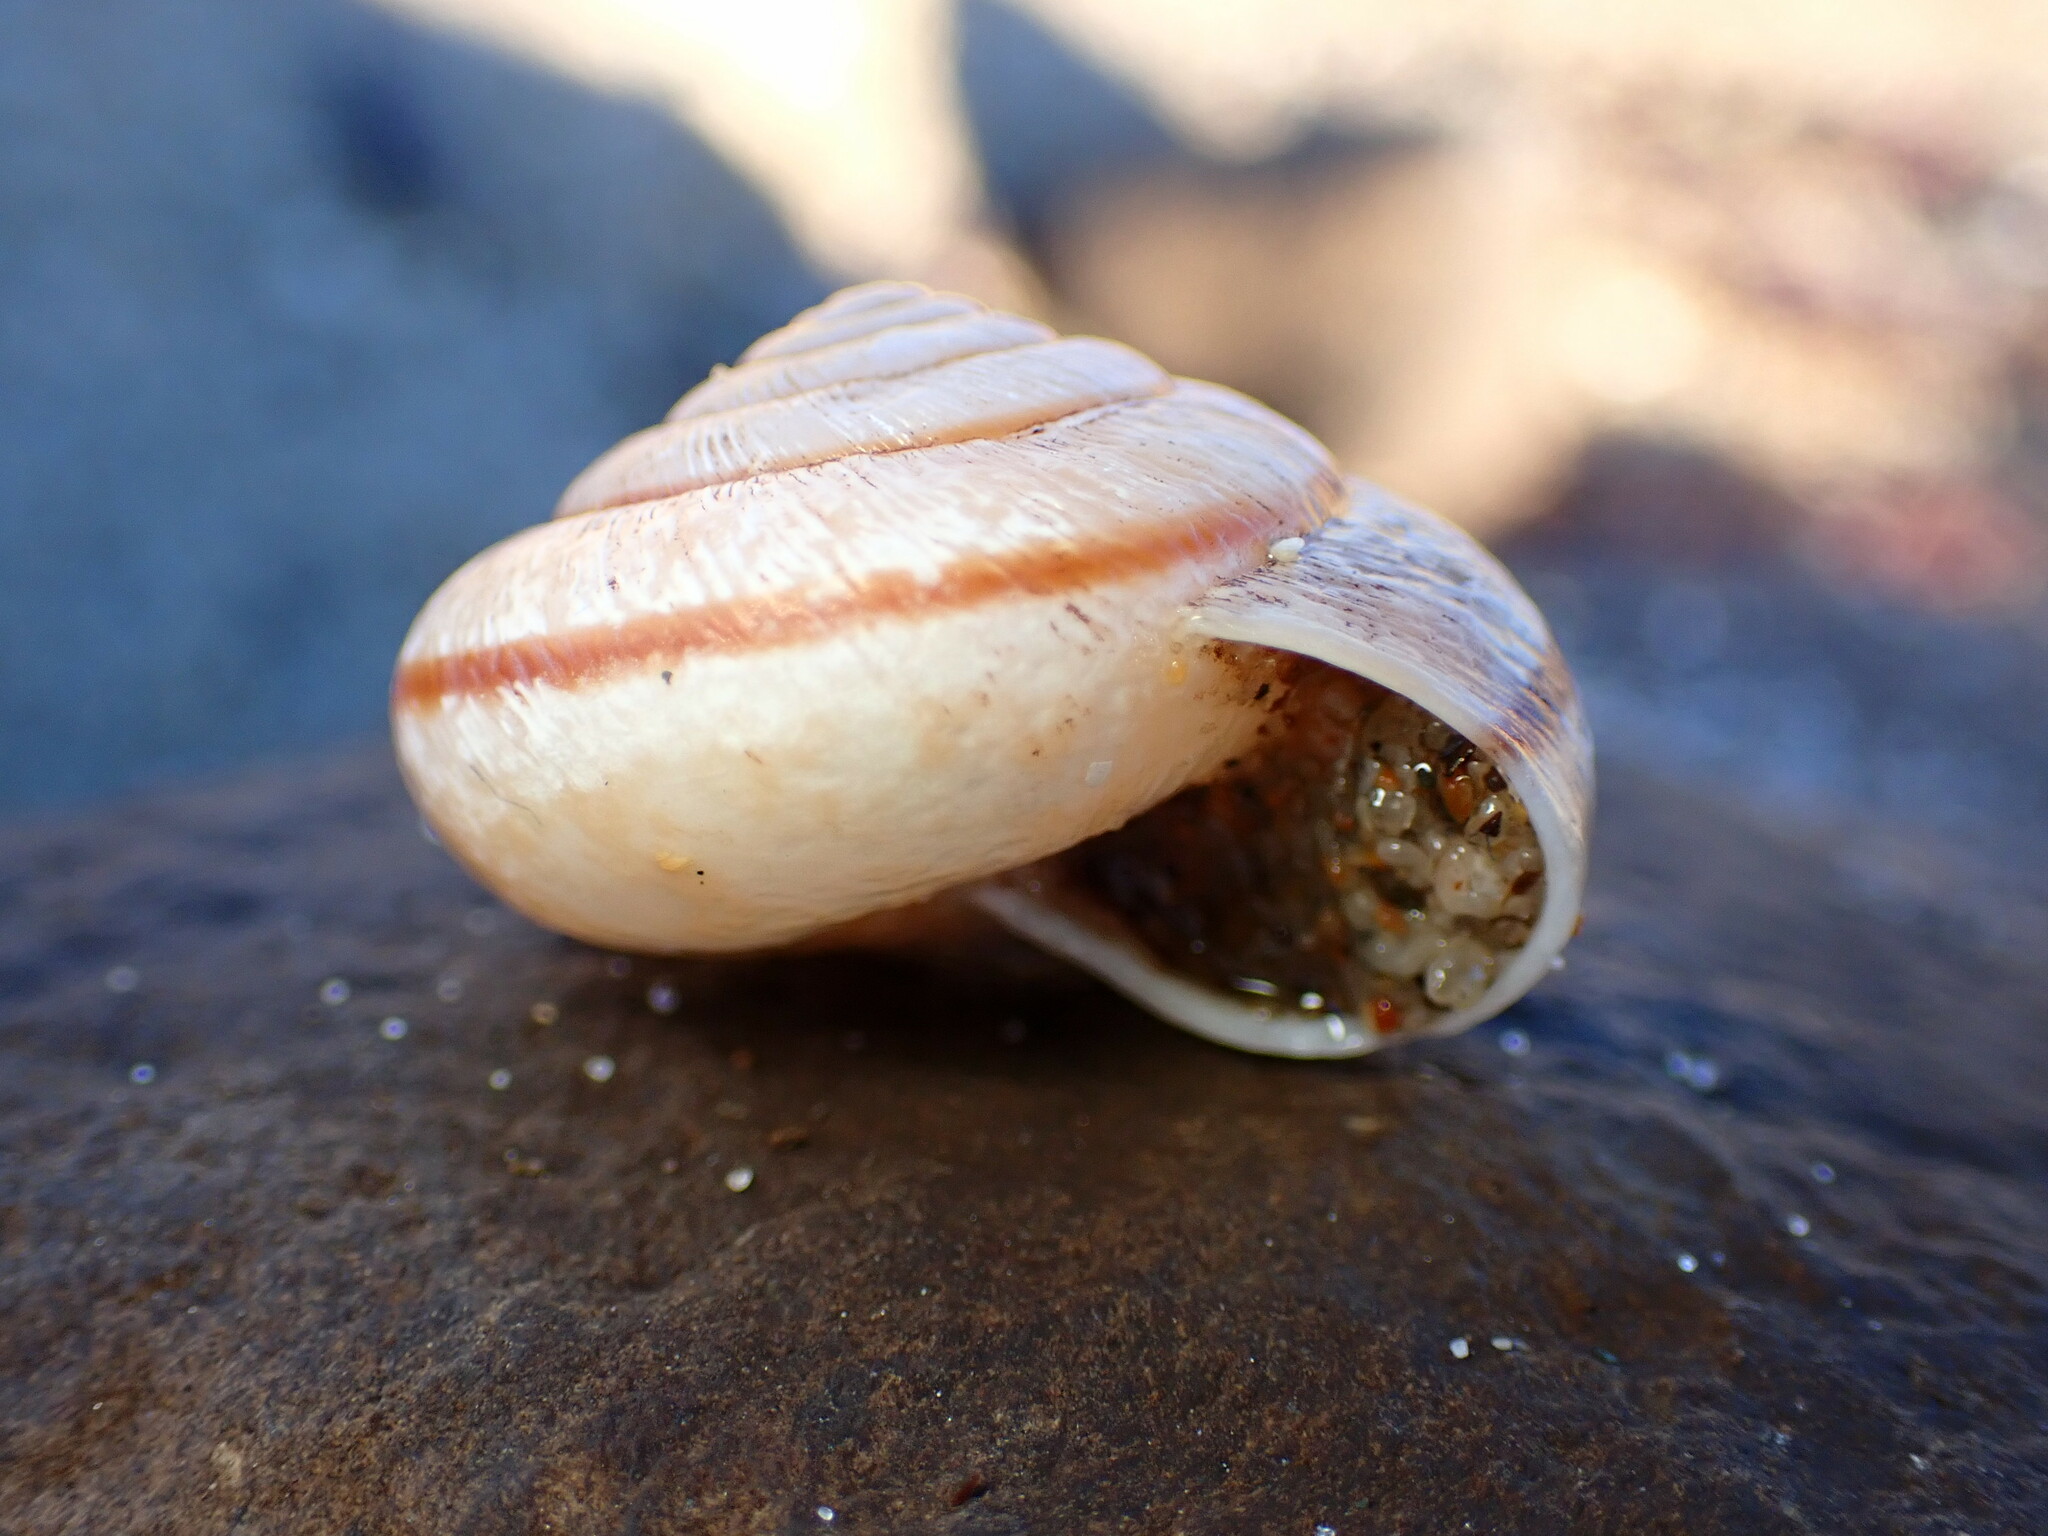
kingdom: Animalia
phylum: Mollusca
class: Gastropoda
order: Stylommatophora
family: Xanthonychidae
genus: Helminthoglypta
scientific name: Helminthoglypta exarata
